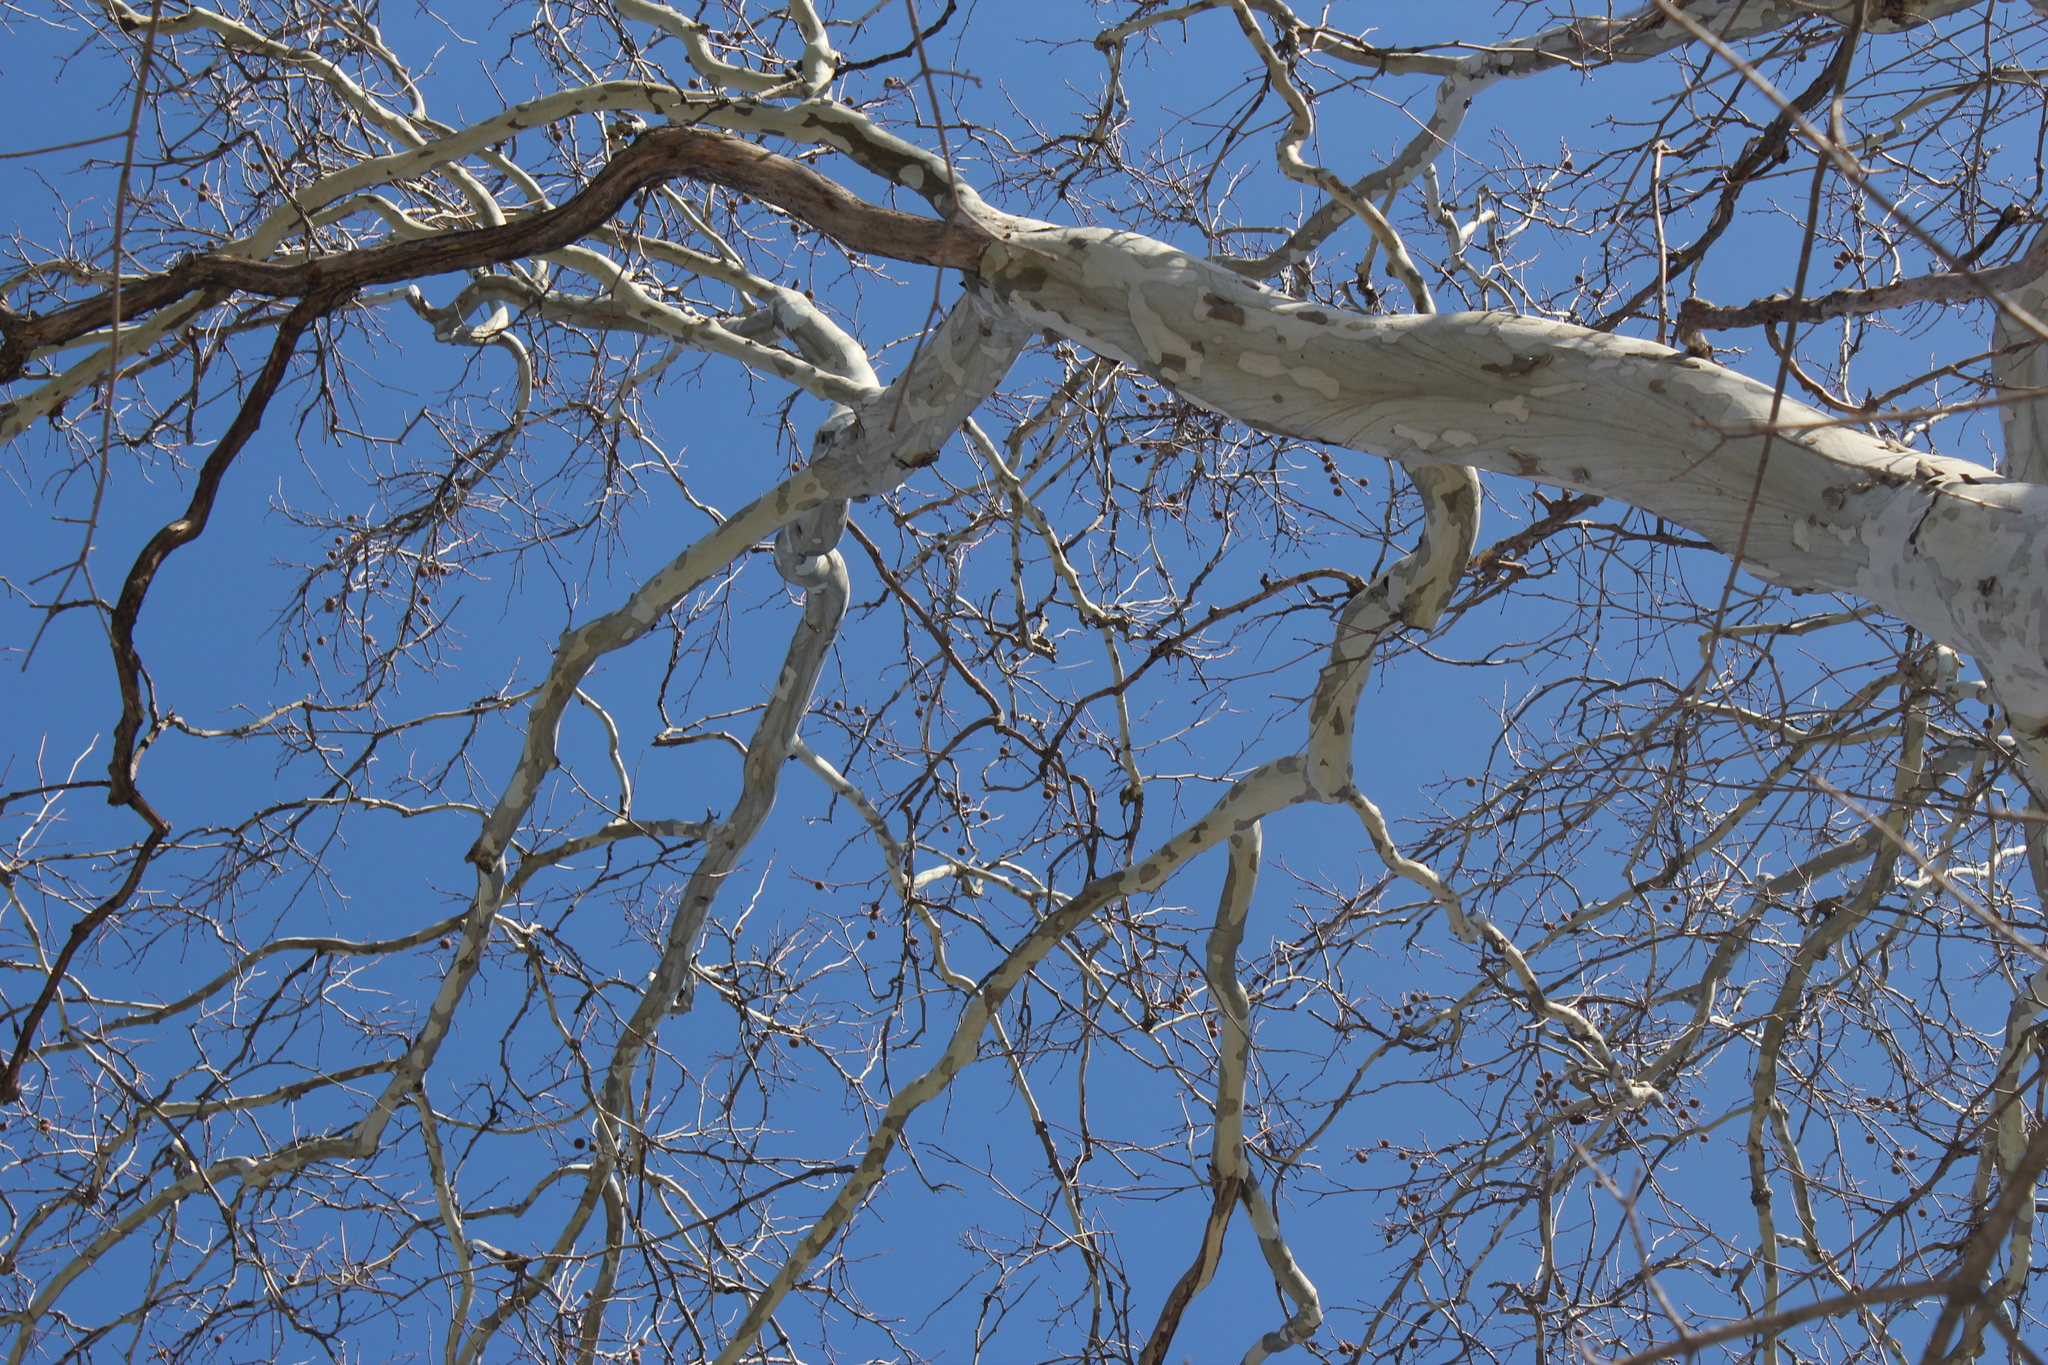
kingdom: Plantae
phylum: Tracheophyta
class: Magnoliopsida
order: Proteales
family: Platanaceae
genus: Platanus
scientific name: Platanus occidentalis
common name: American sycamore
